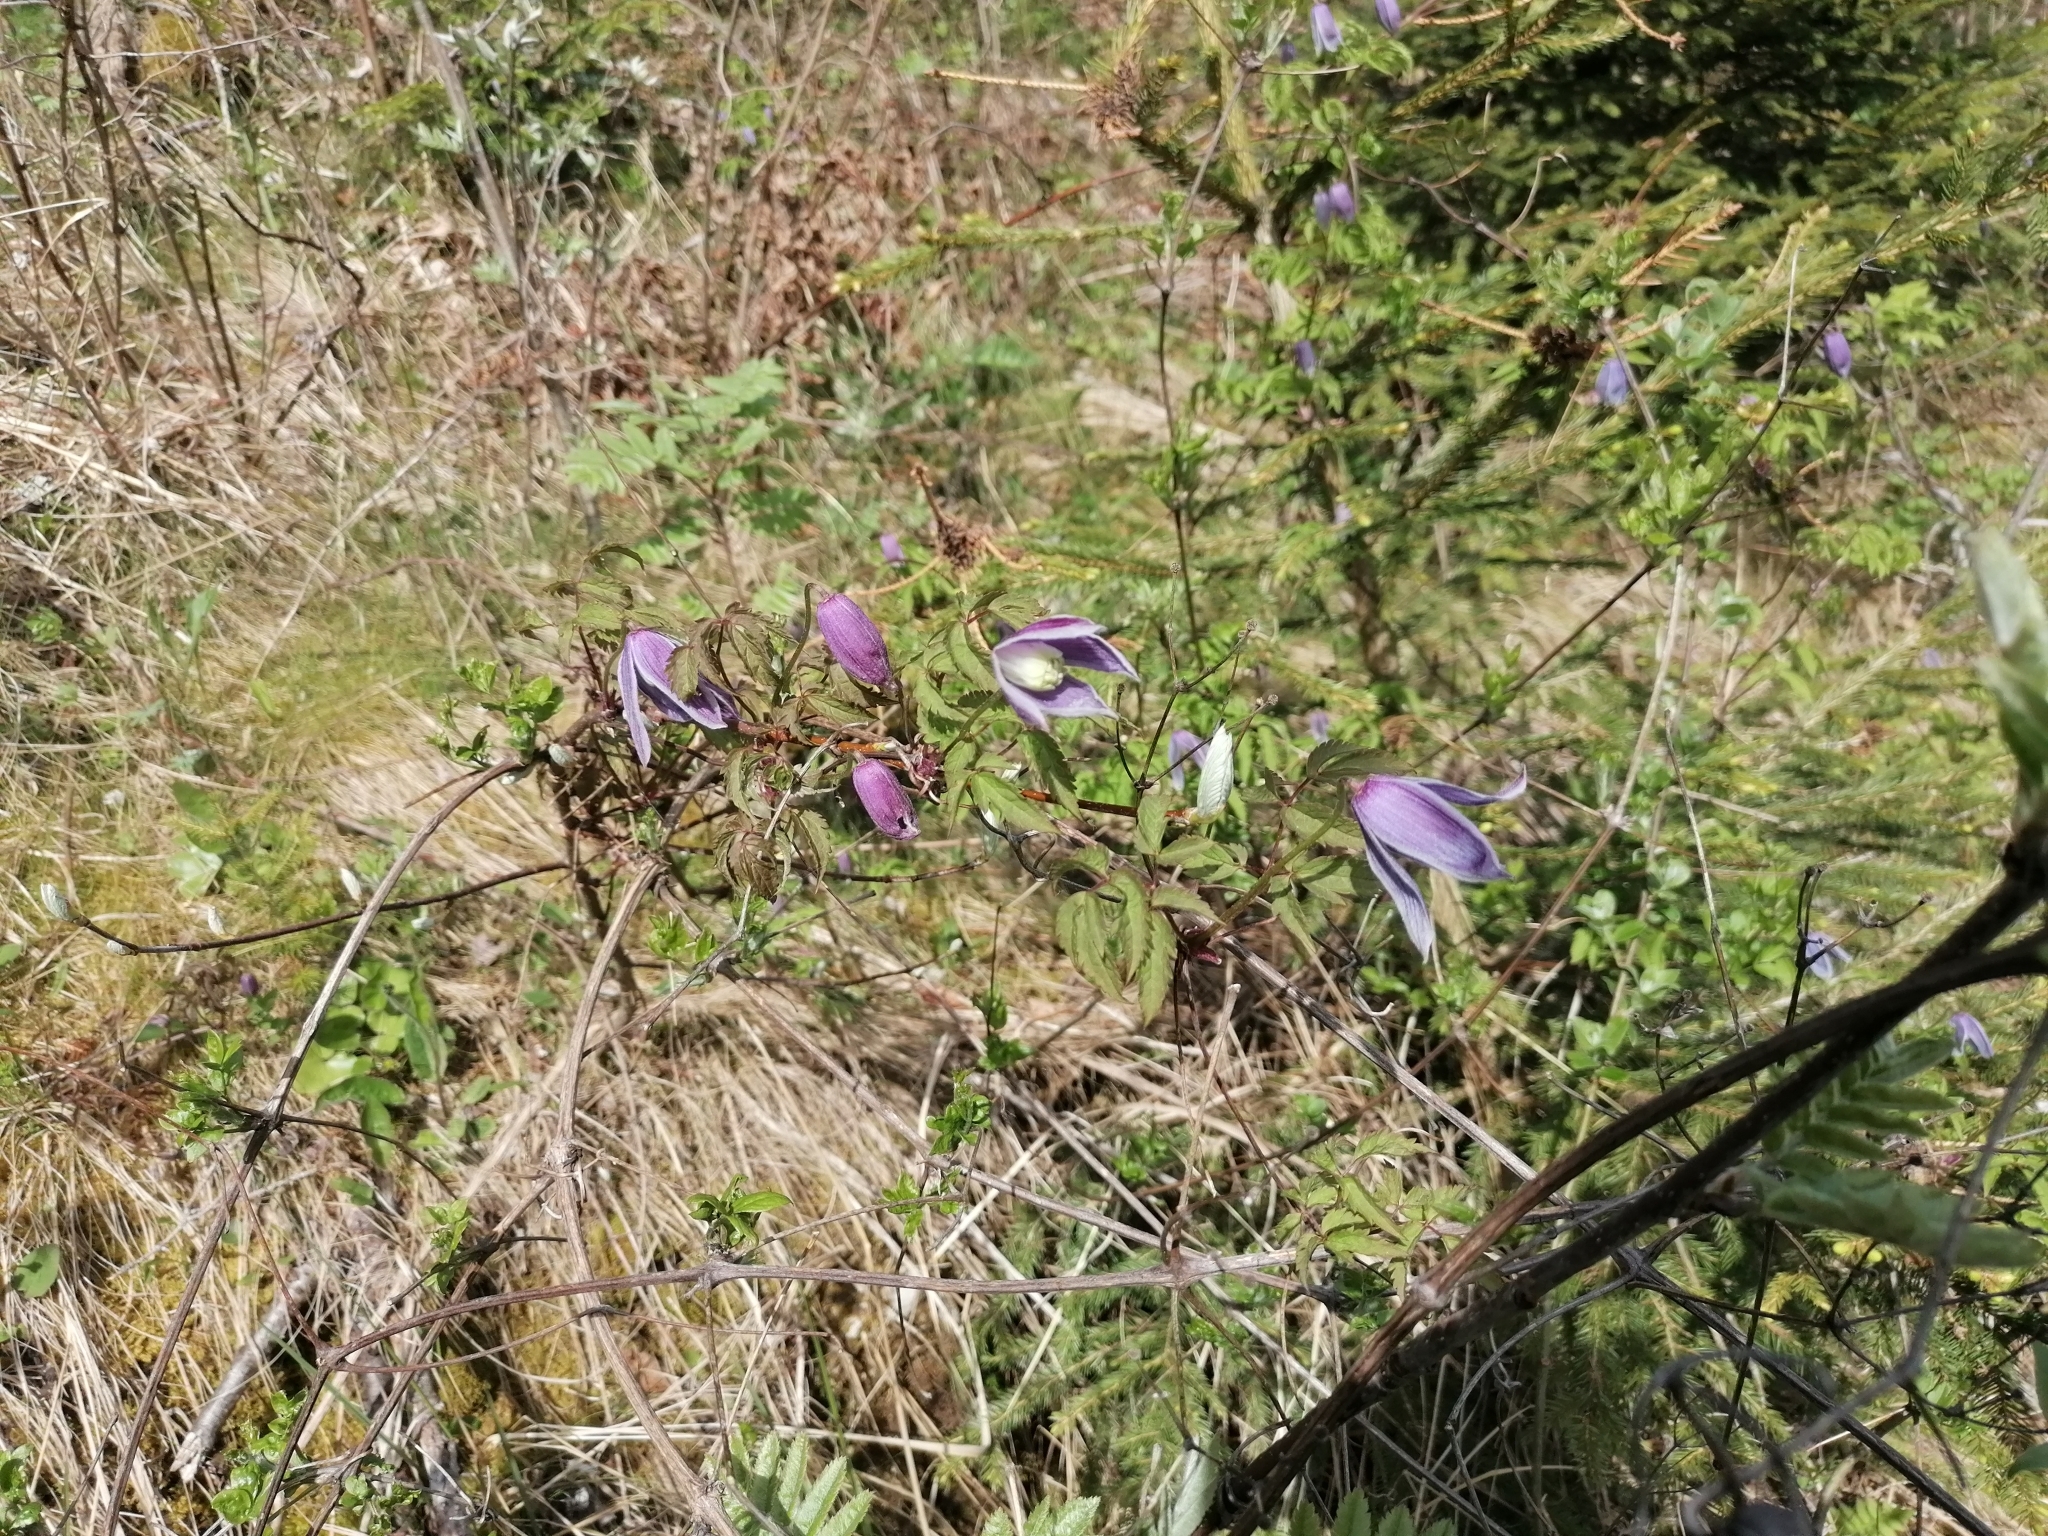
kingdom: Plantae
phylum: Tracheophyta
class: Magnoliopsida
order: Ranunculales
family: Ranunculaceae
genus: Clematis
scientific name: Clematis alpina
